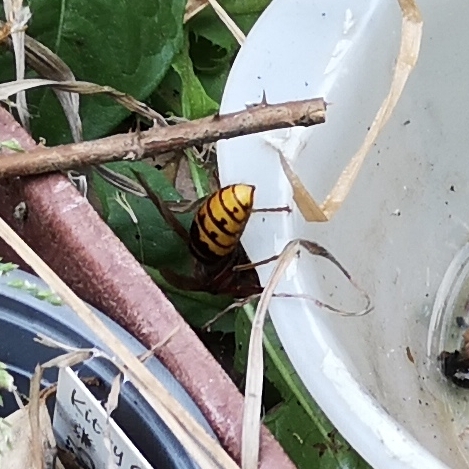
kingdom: Animalia
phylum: Arthropoda
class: Insecta
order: Hymenoptera
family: Vespidae
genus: Vespa
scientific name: Vespa crabro
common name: Hornet
